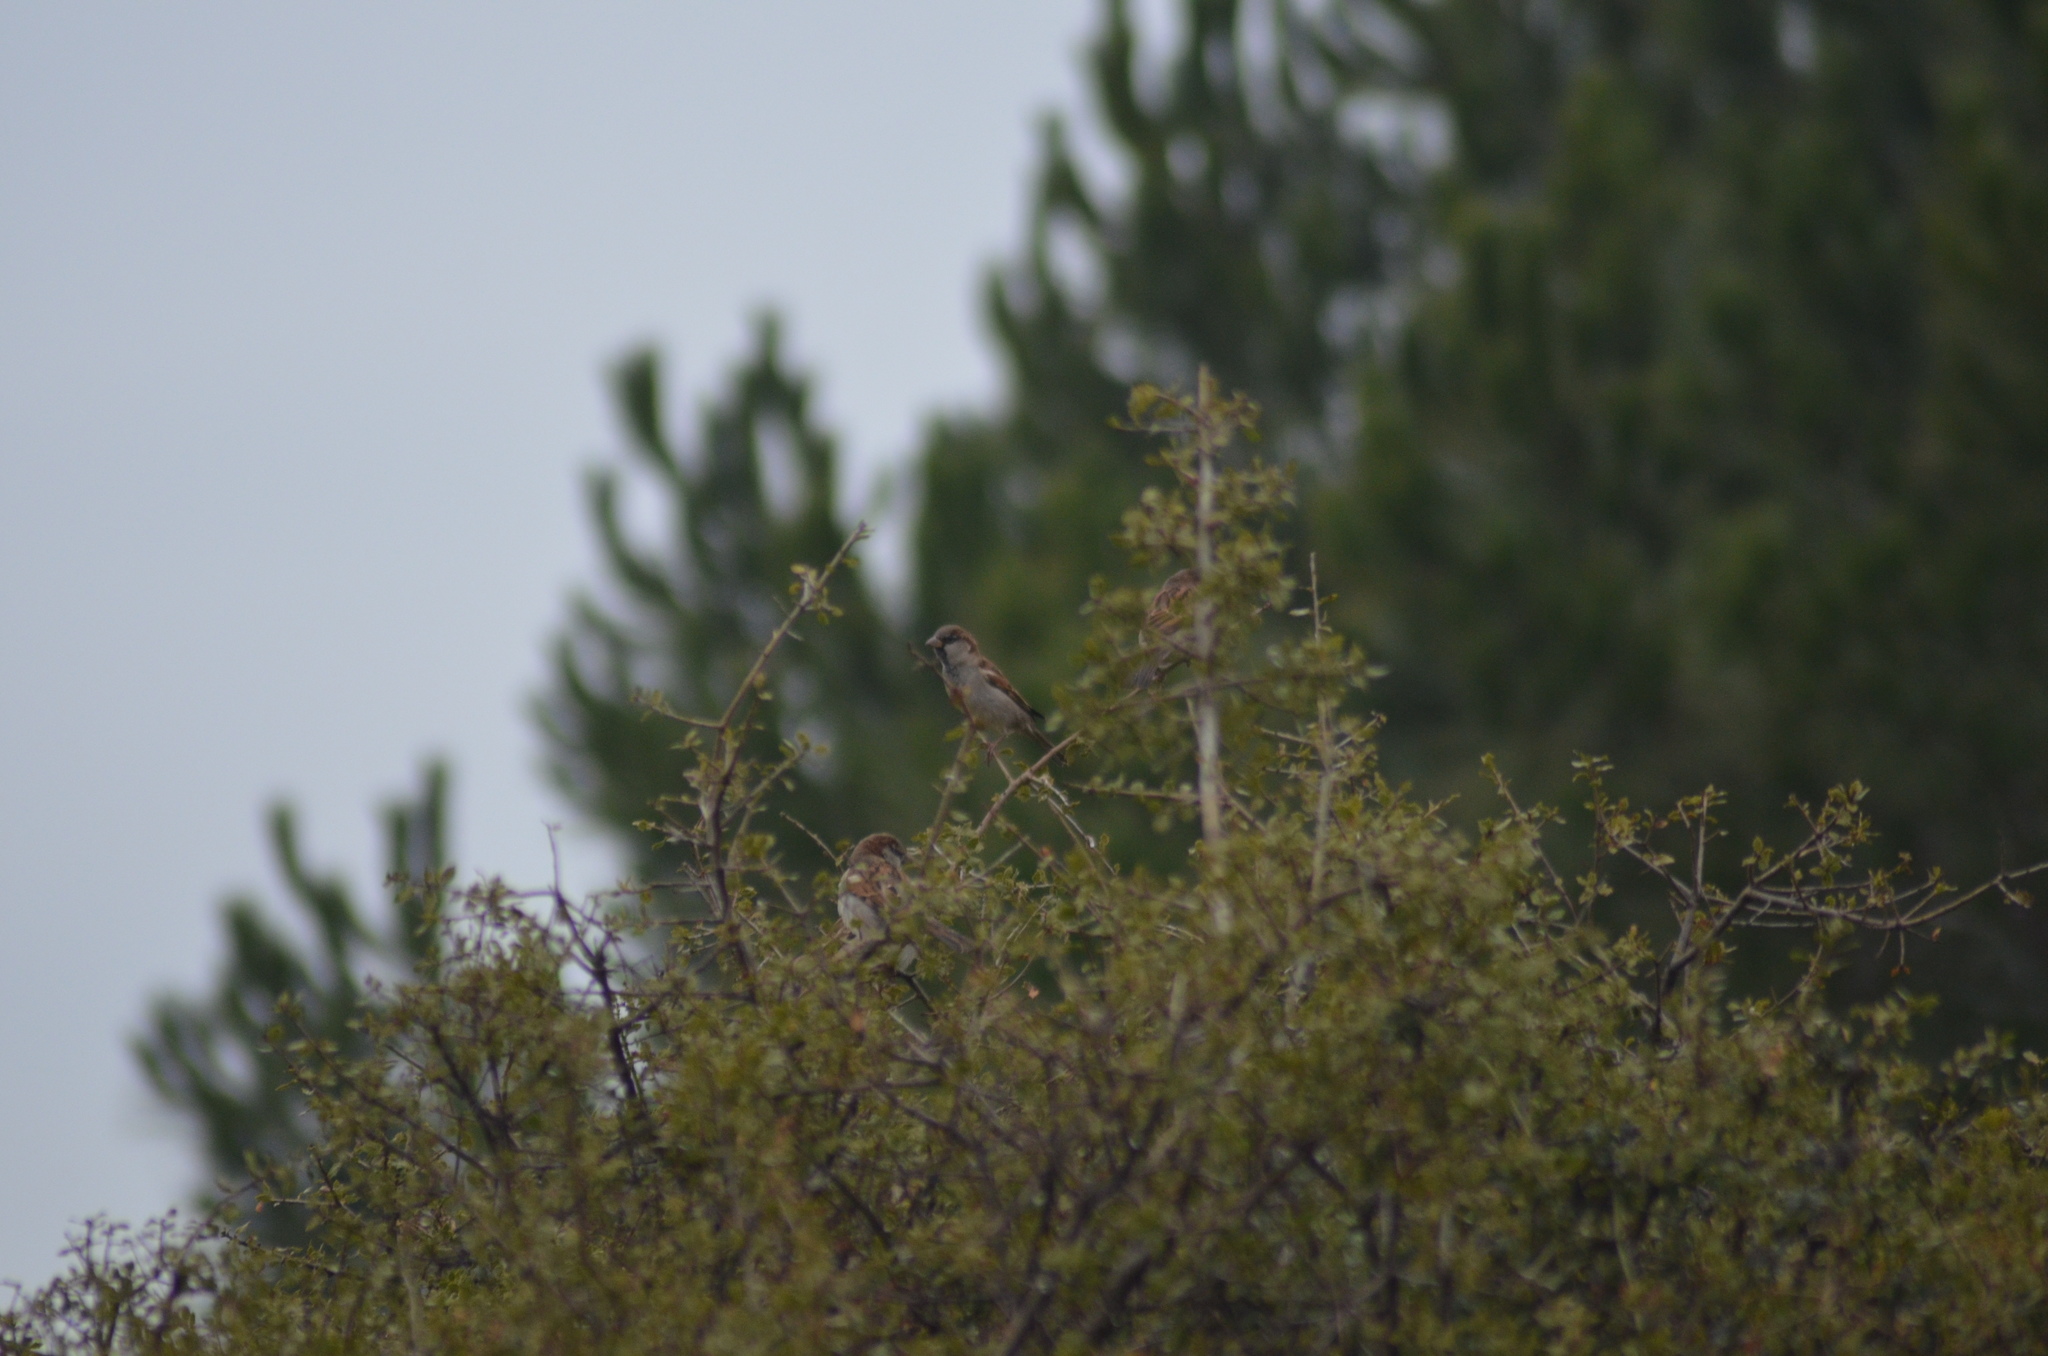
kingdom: Animalia
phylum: Chordata
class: Aves
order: Passeriformes
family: Passeridae
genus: Passer
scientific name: Passer domesticus
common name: House sparrow
